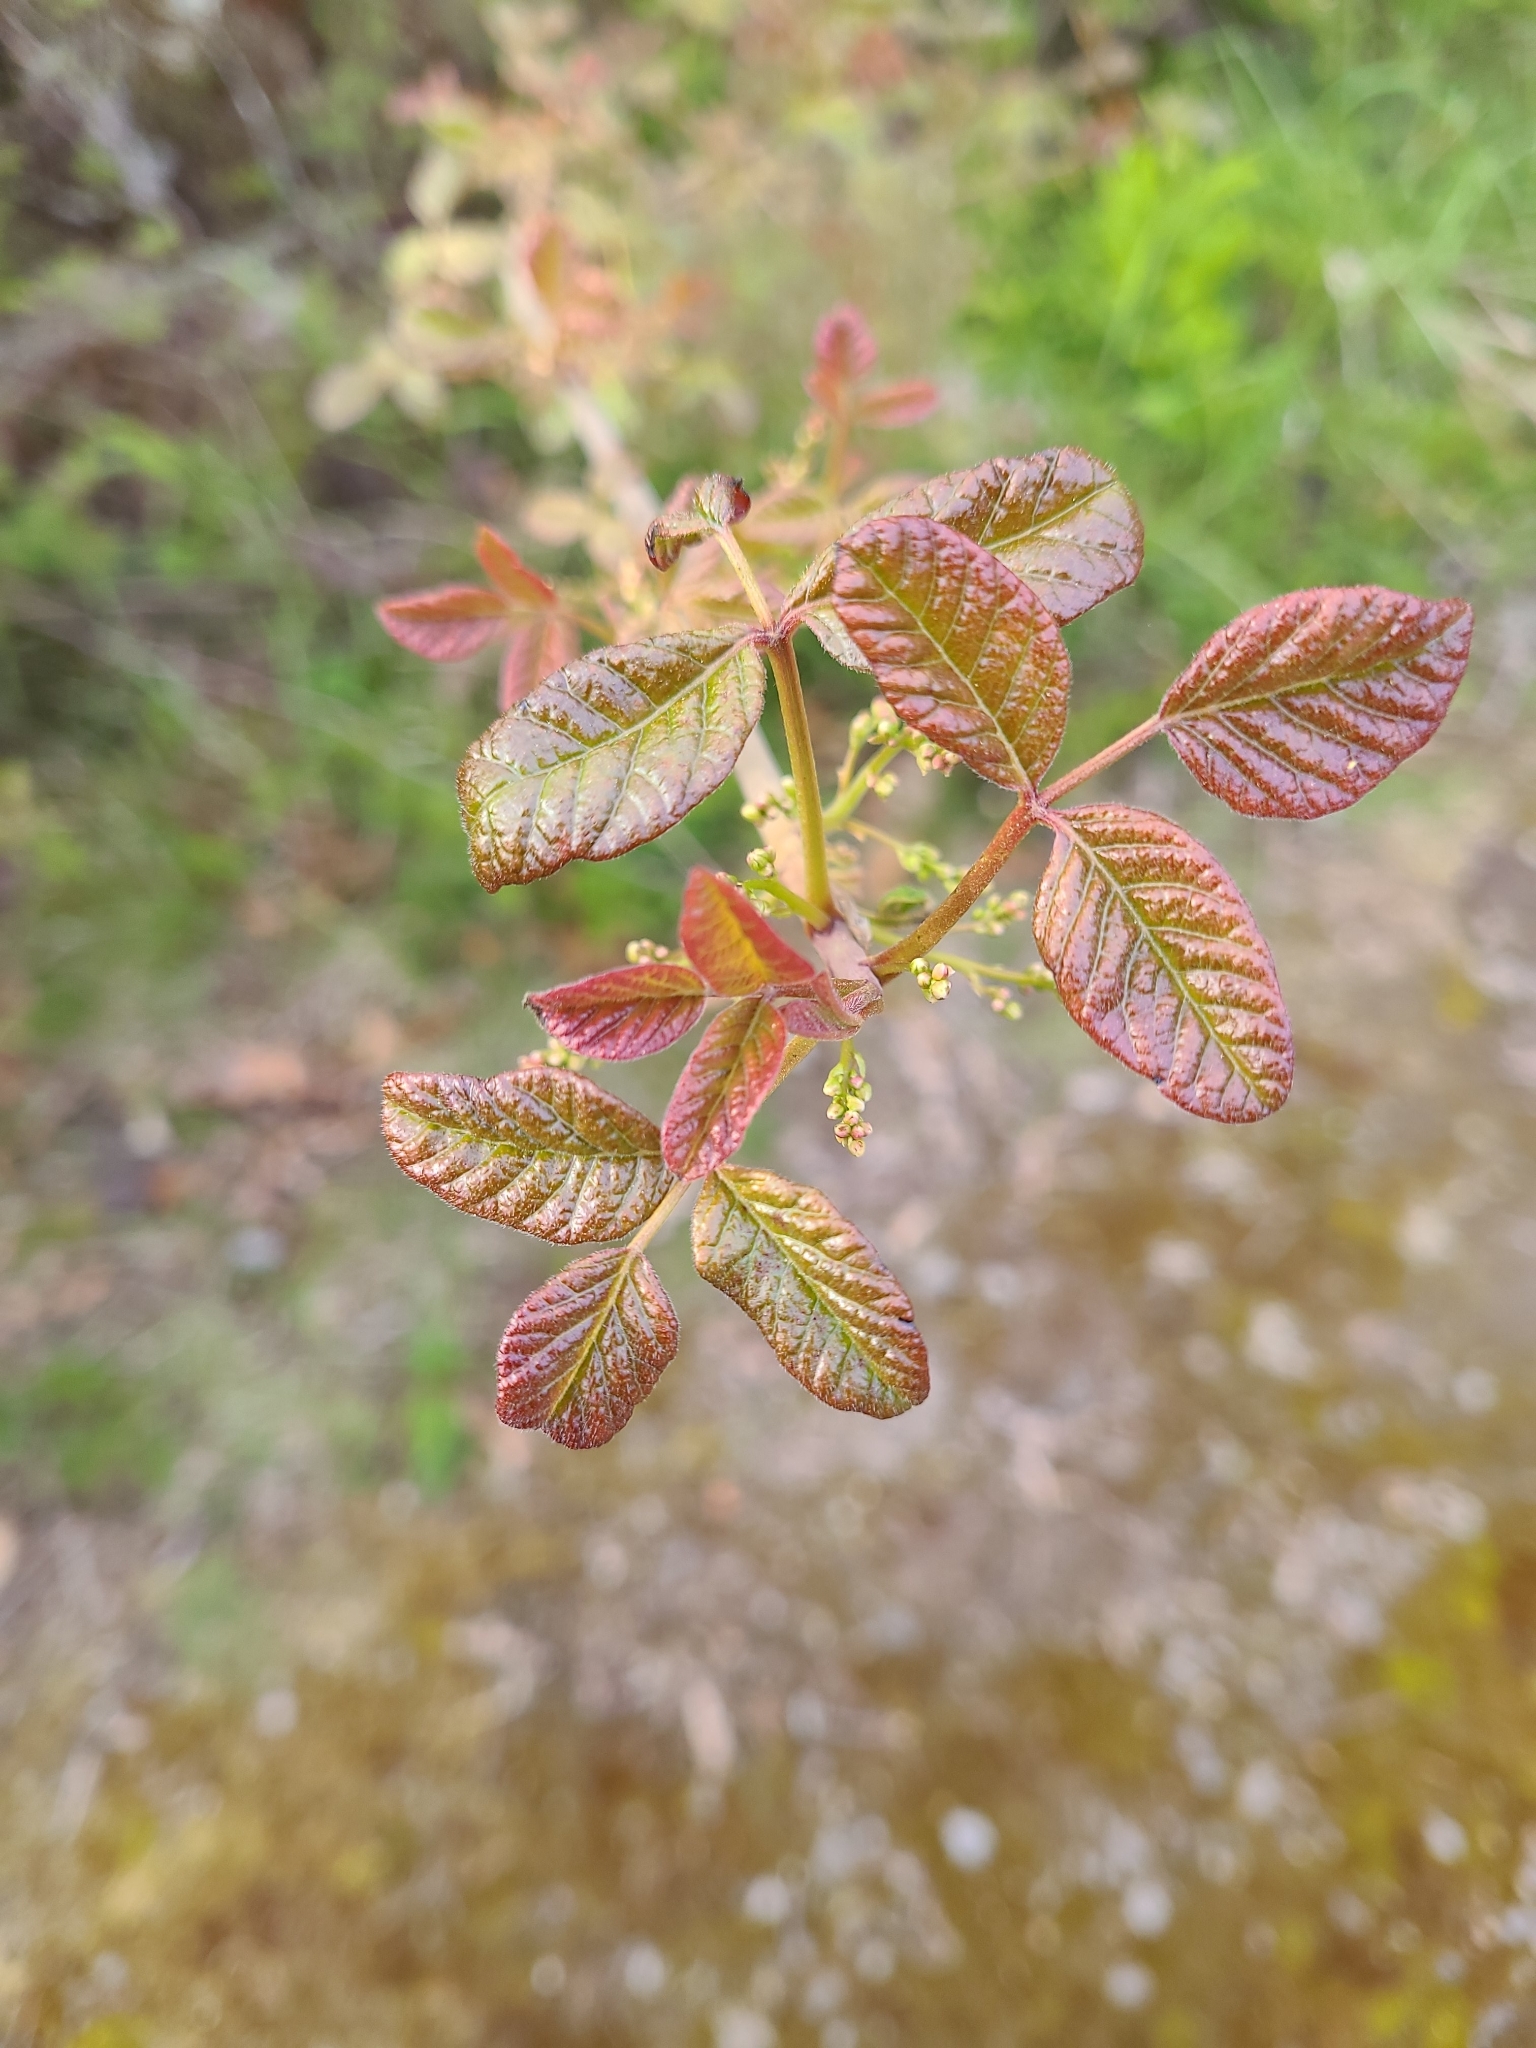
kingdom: Plantae
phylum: Tracheophyta
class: Magnoliopsida
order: Sapindales
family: Anacardiaceae
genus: Toxicodendron
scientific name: Toxicodendron diversilobum
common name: Pacific poison-oak
